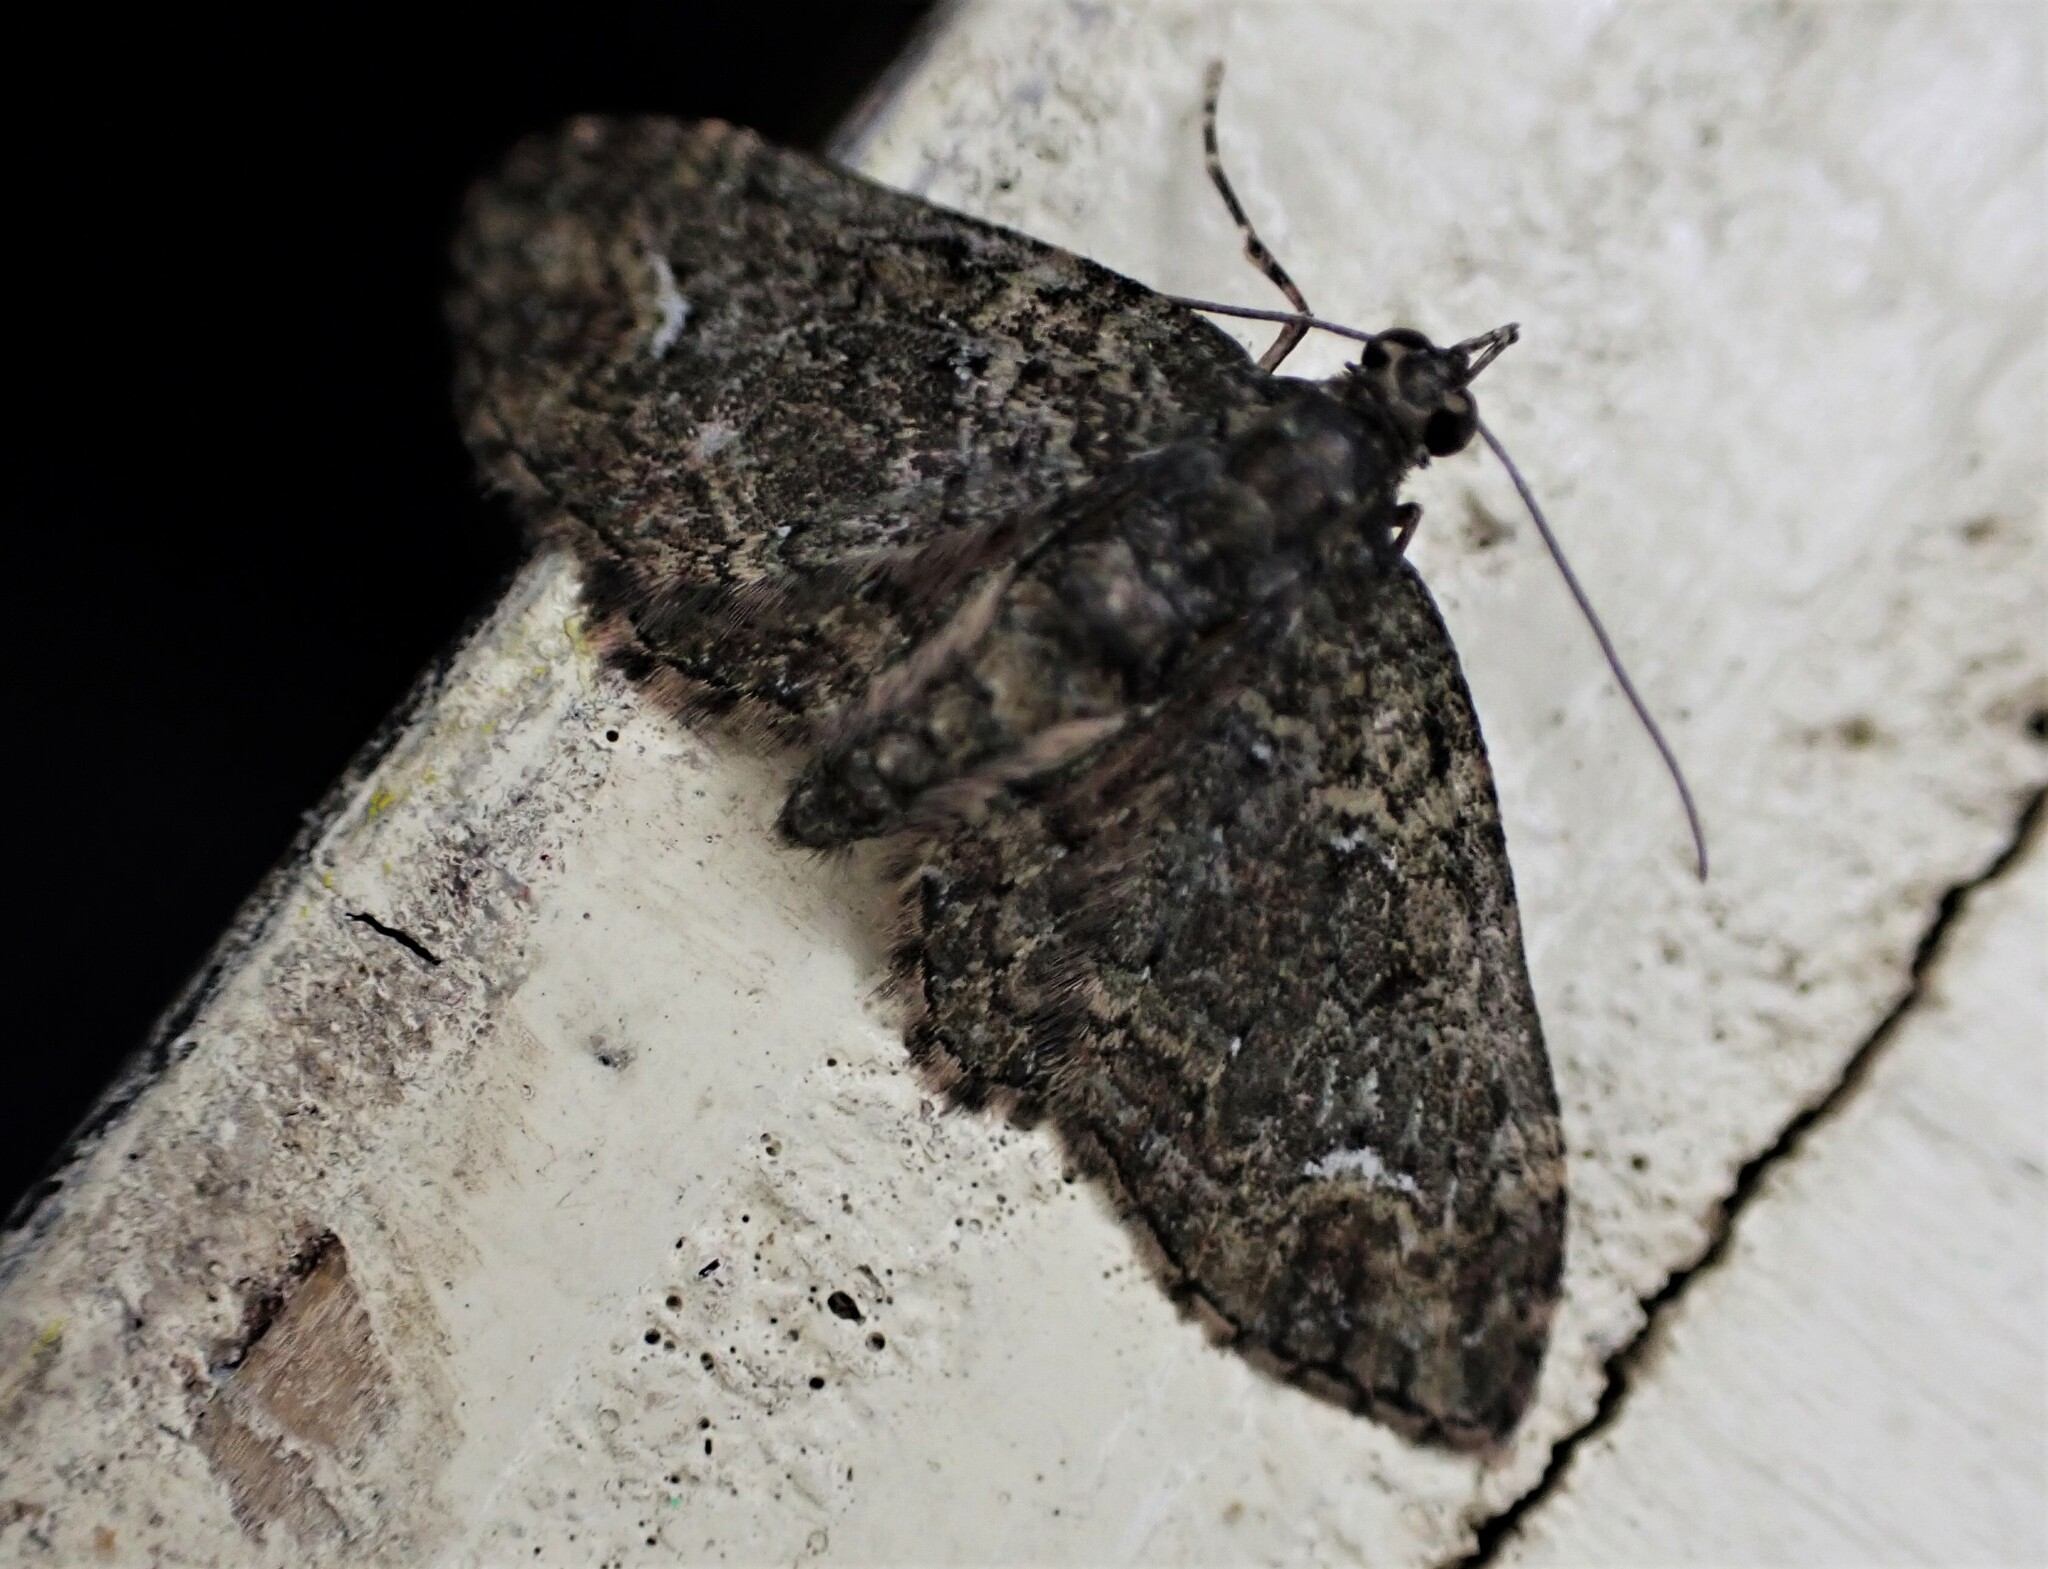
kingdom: Animalia
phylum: Arthropoda
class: Insecta
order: Lepidoptera
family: Geometridae
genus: Pasiphilodes
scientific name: Pasiphilodes testulata
